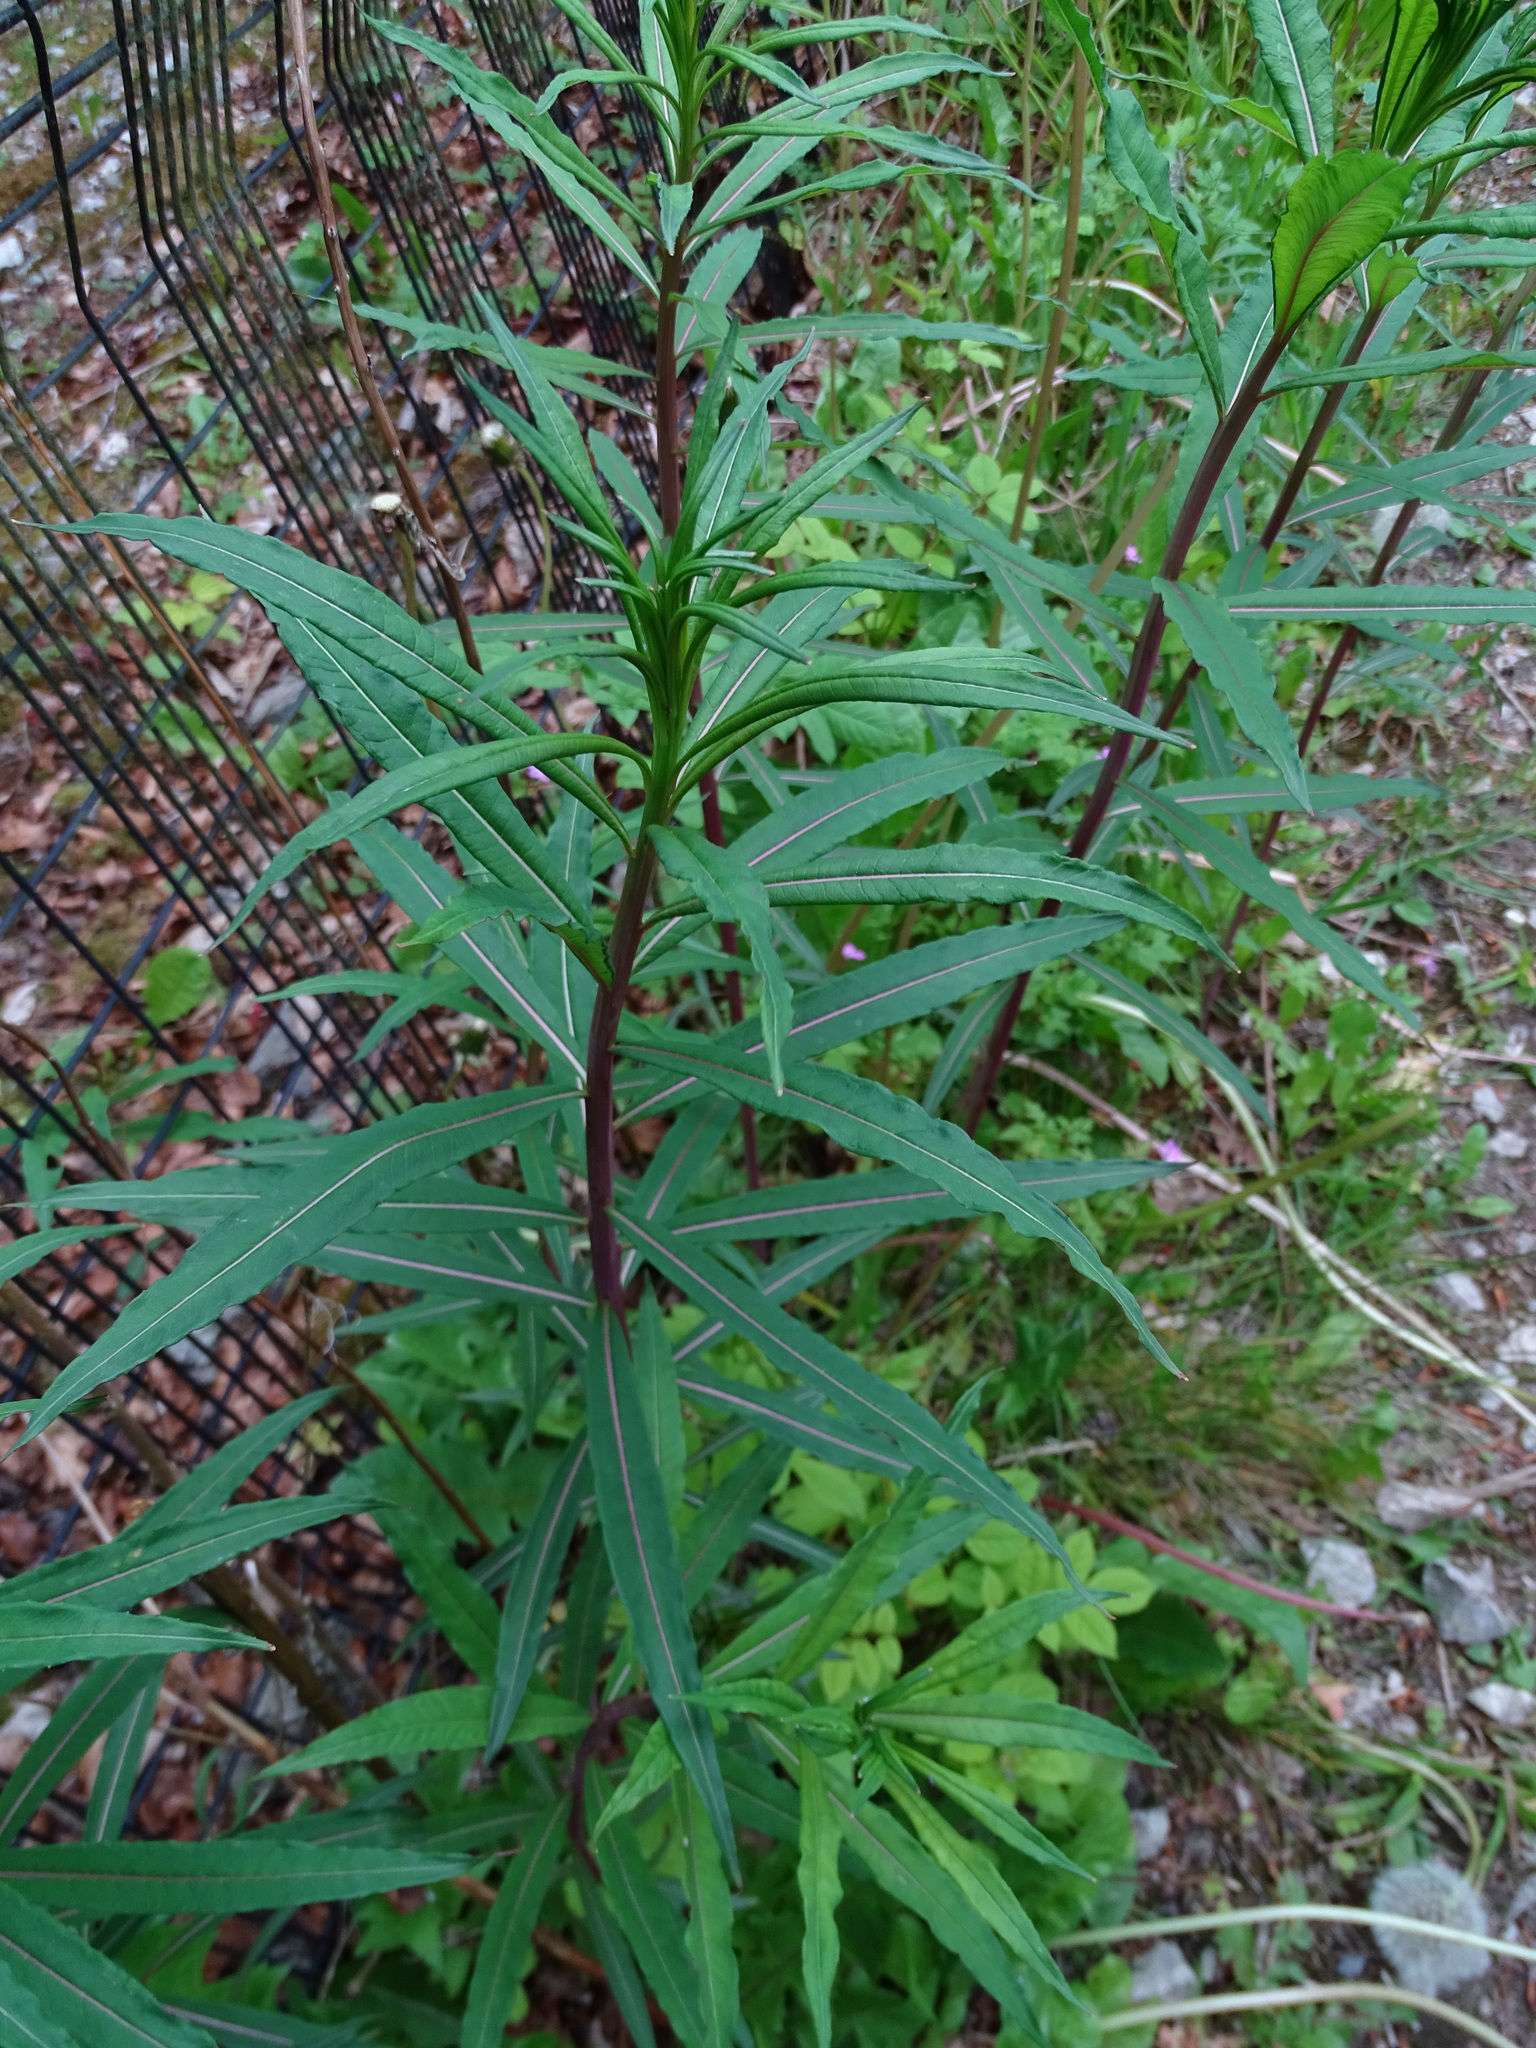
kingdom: Plantae
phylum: Tracheophyta
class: Magnoliopsida
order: Myrtales
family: Onagraceae
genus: Chamaenerion
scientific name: Chamaenerion angustifolium
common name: Fireweed
